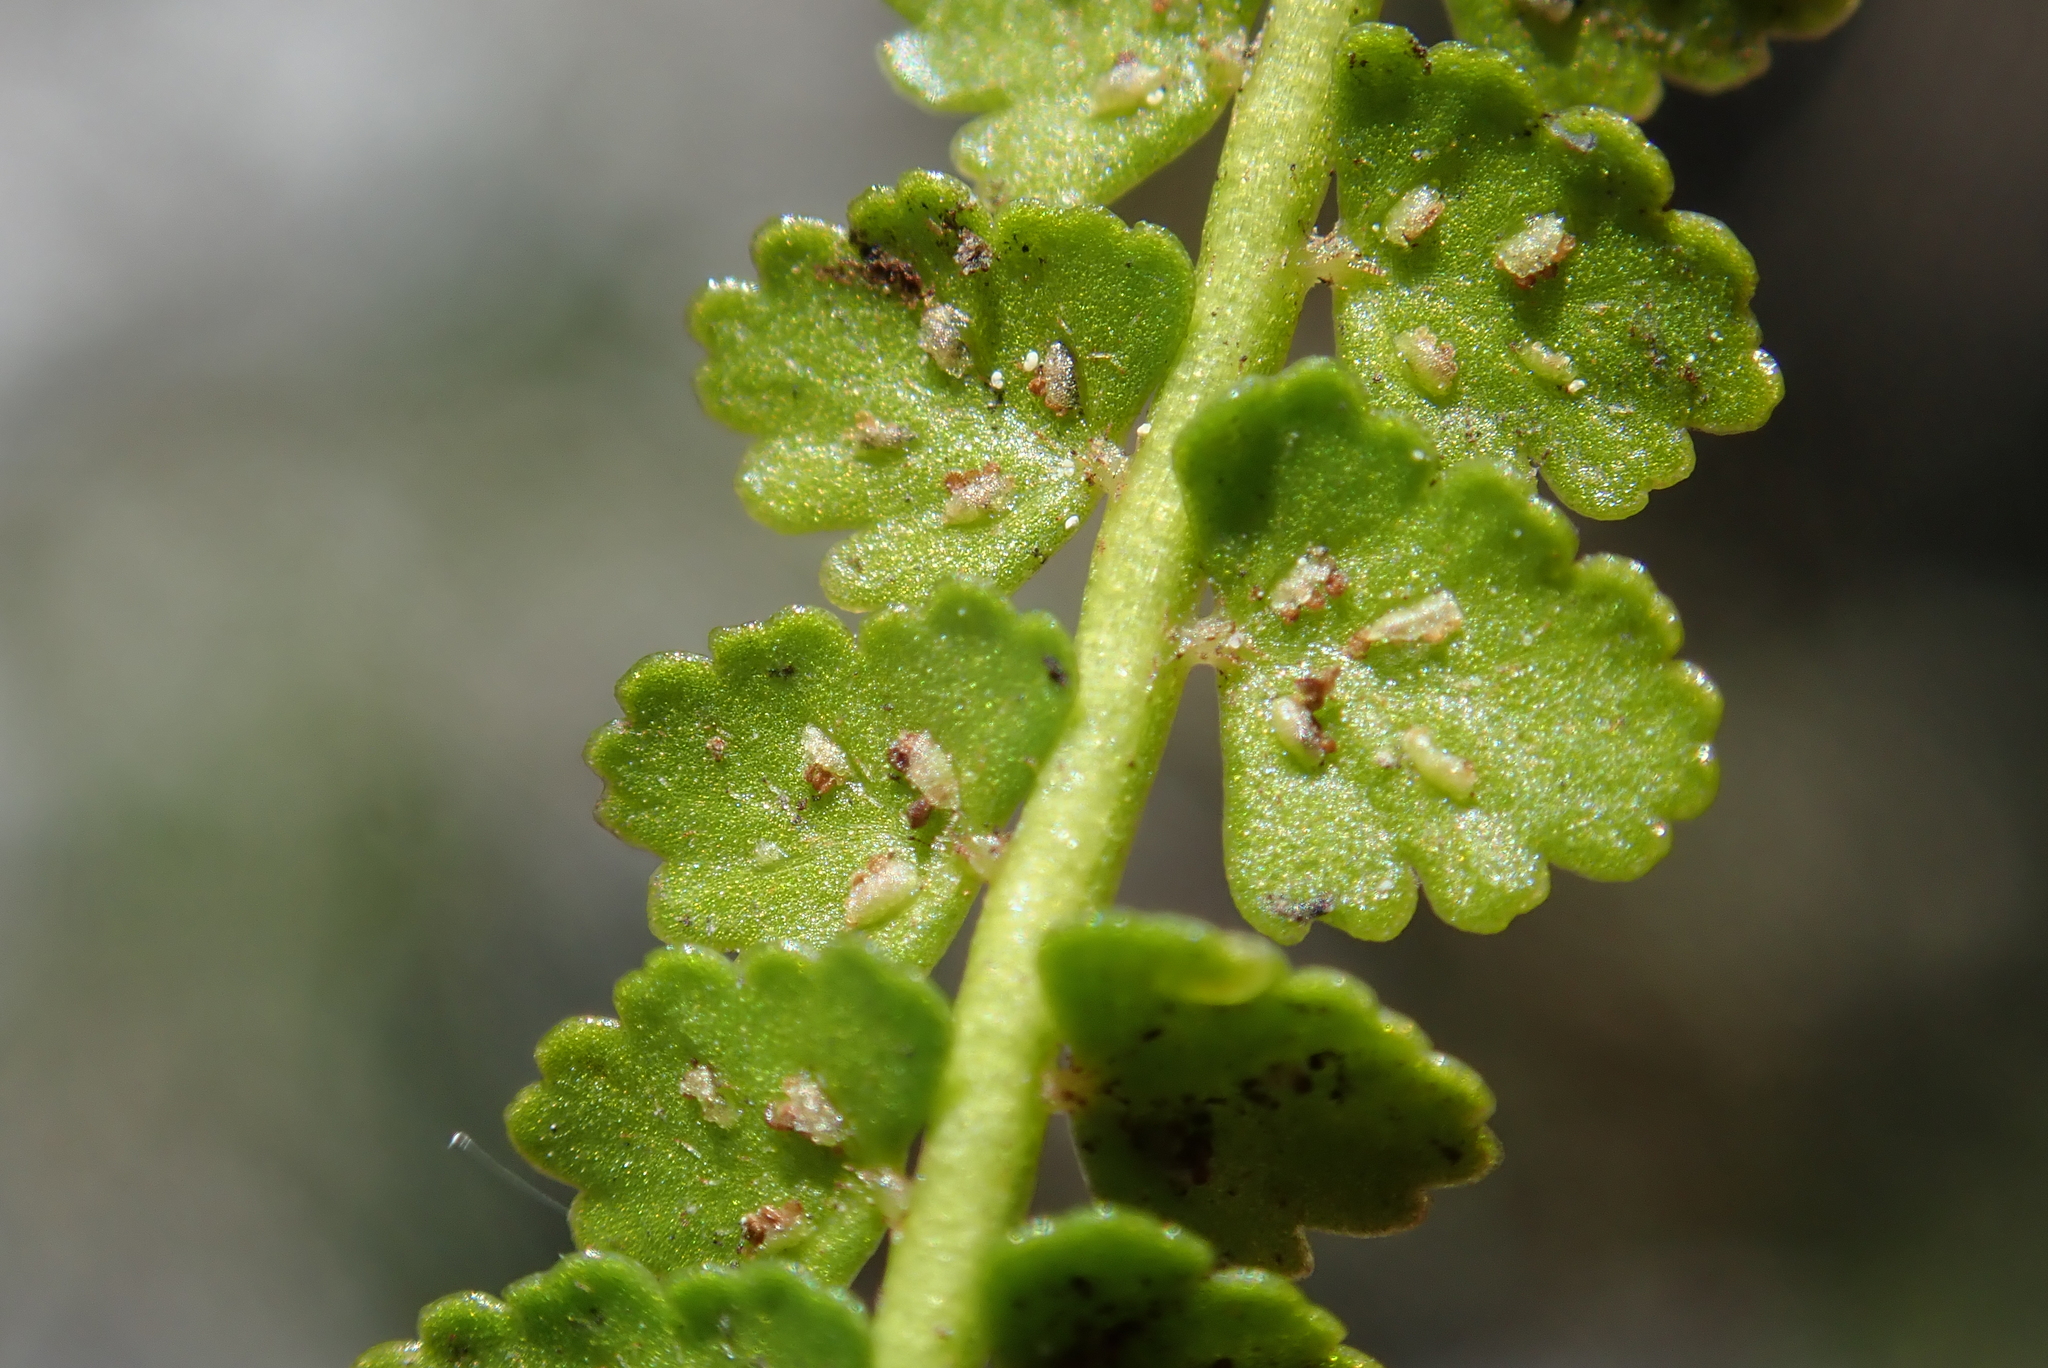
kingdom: Plantae
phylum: Tracheophyta
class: Polypodiopsida
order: Polypodiales
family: Aspleniaceae
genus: Asplenium
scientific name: Asplenium viride
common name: Green spleenwort
